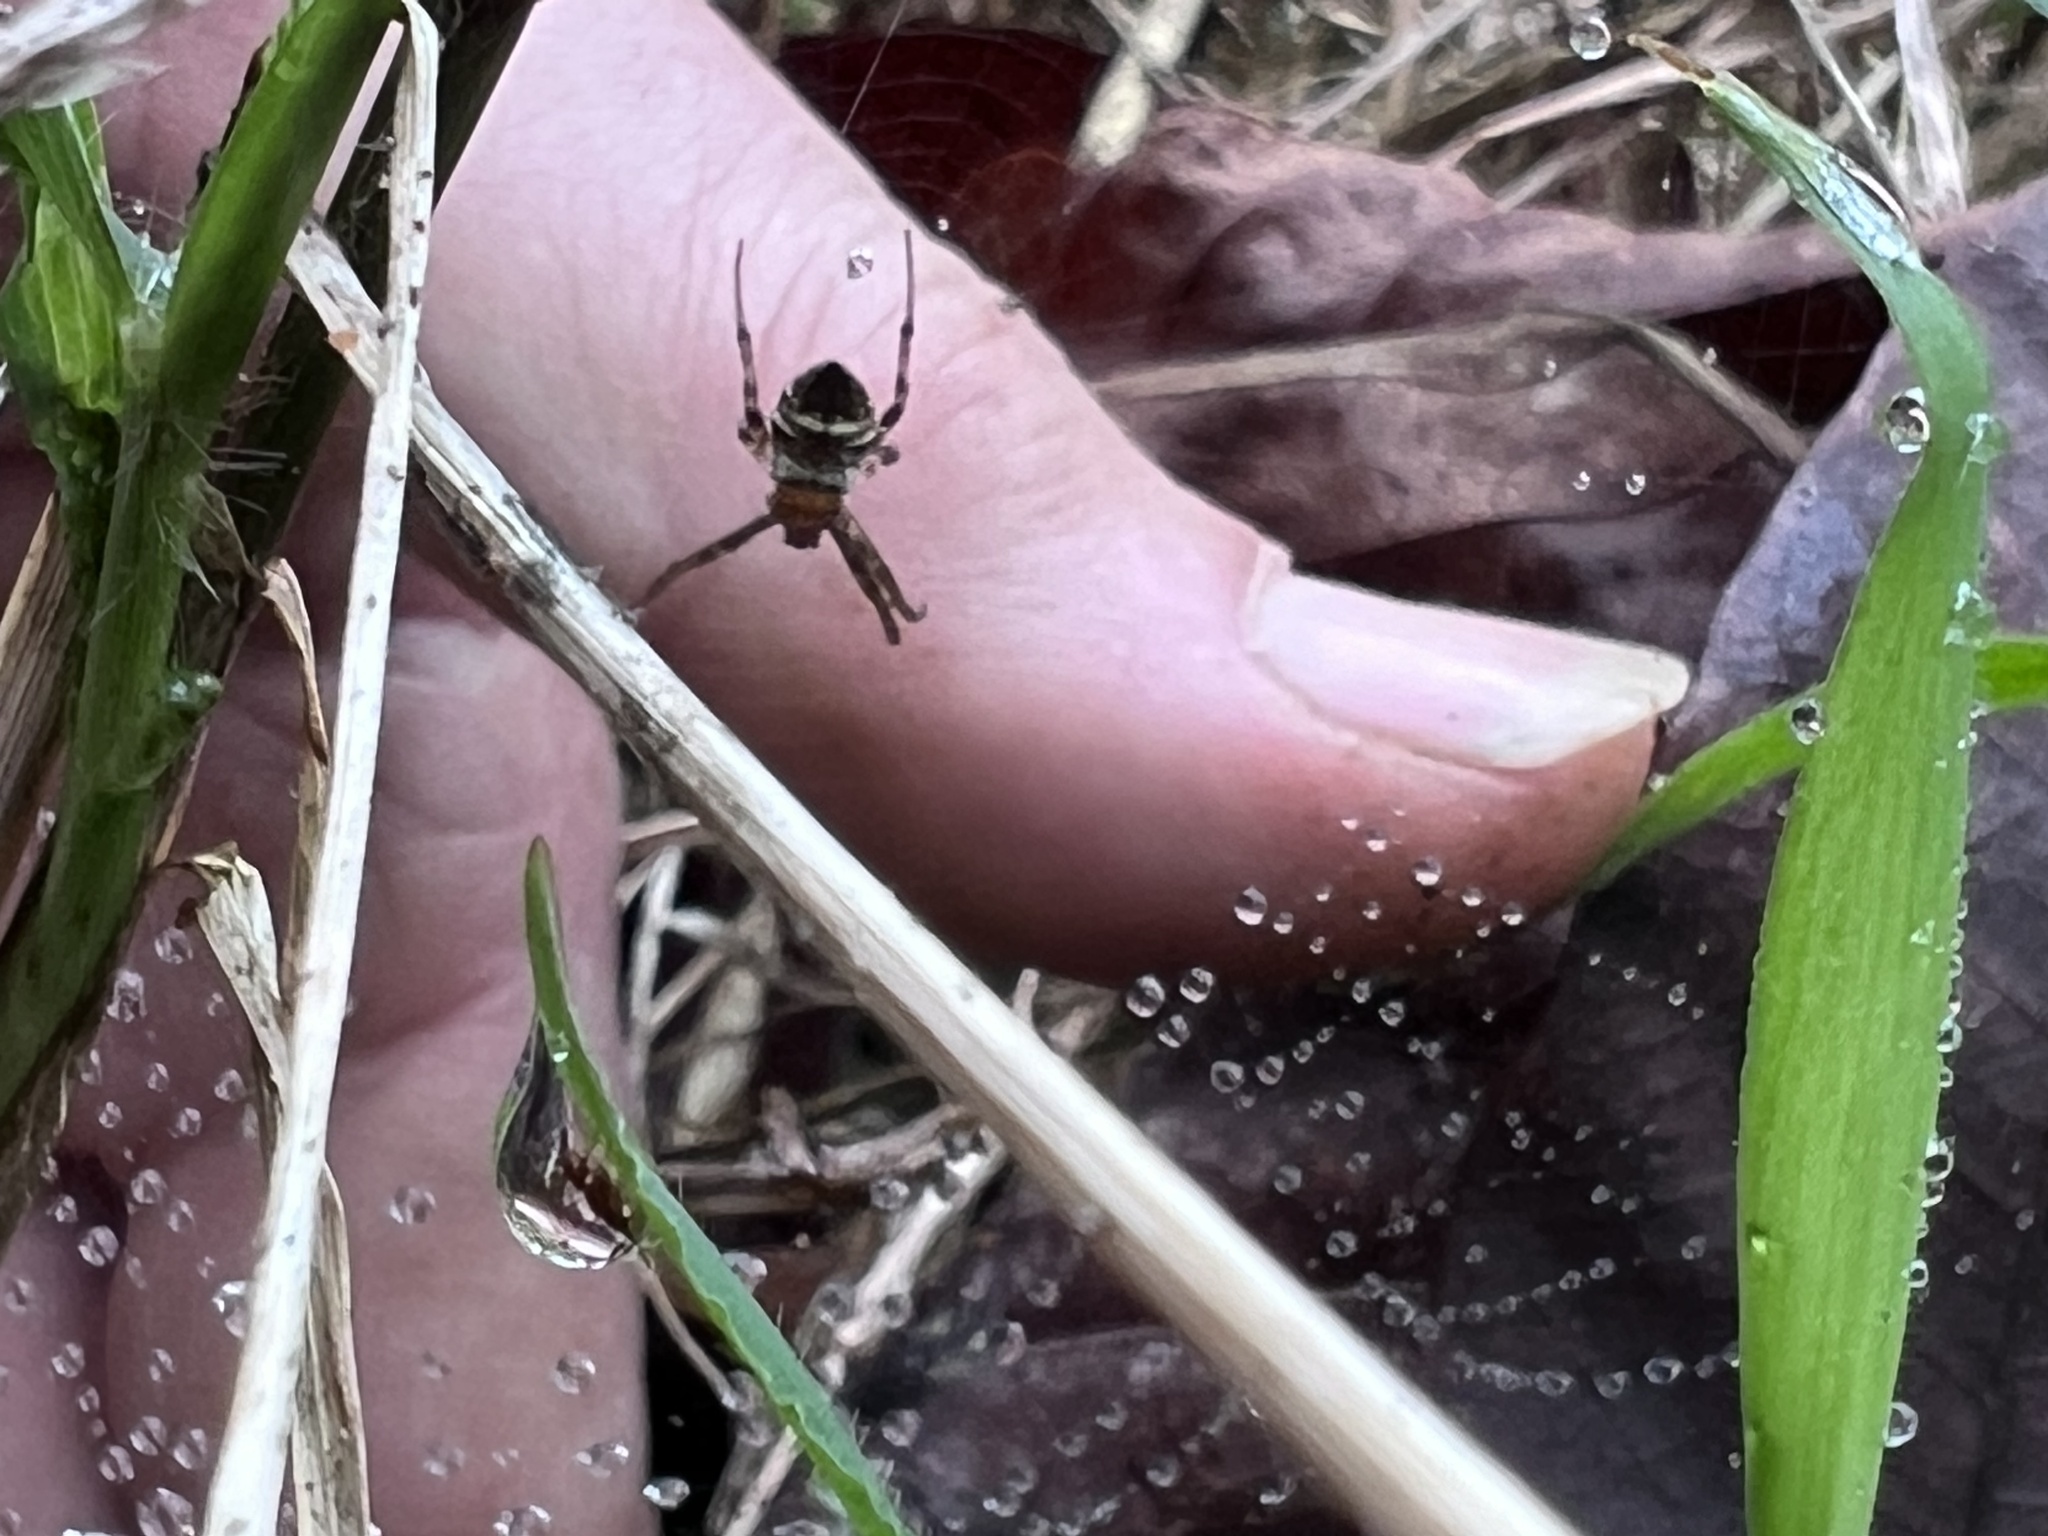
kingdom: Animalia
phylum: Arthropoda
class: Arachnida
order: Araneae
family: Araneidae
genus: Gea
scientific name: Gea heptagon
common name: Orb weavers
